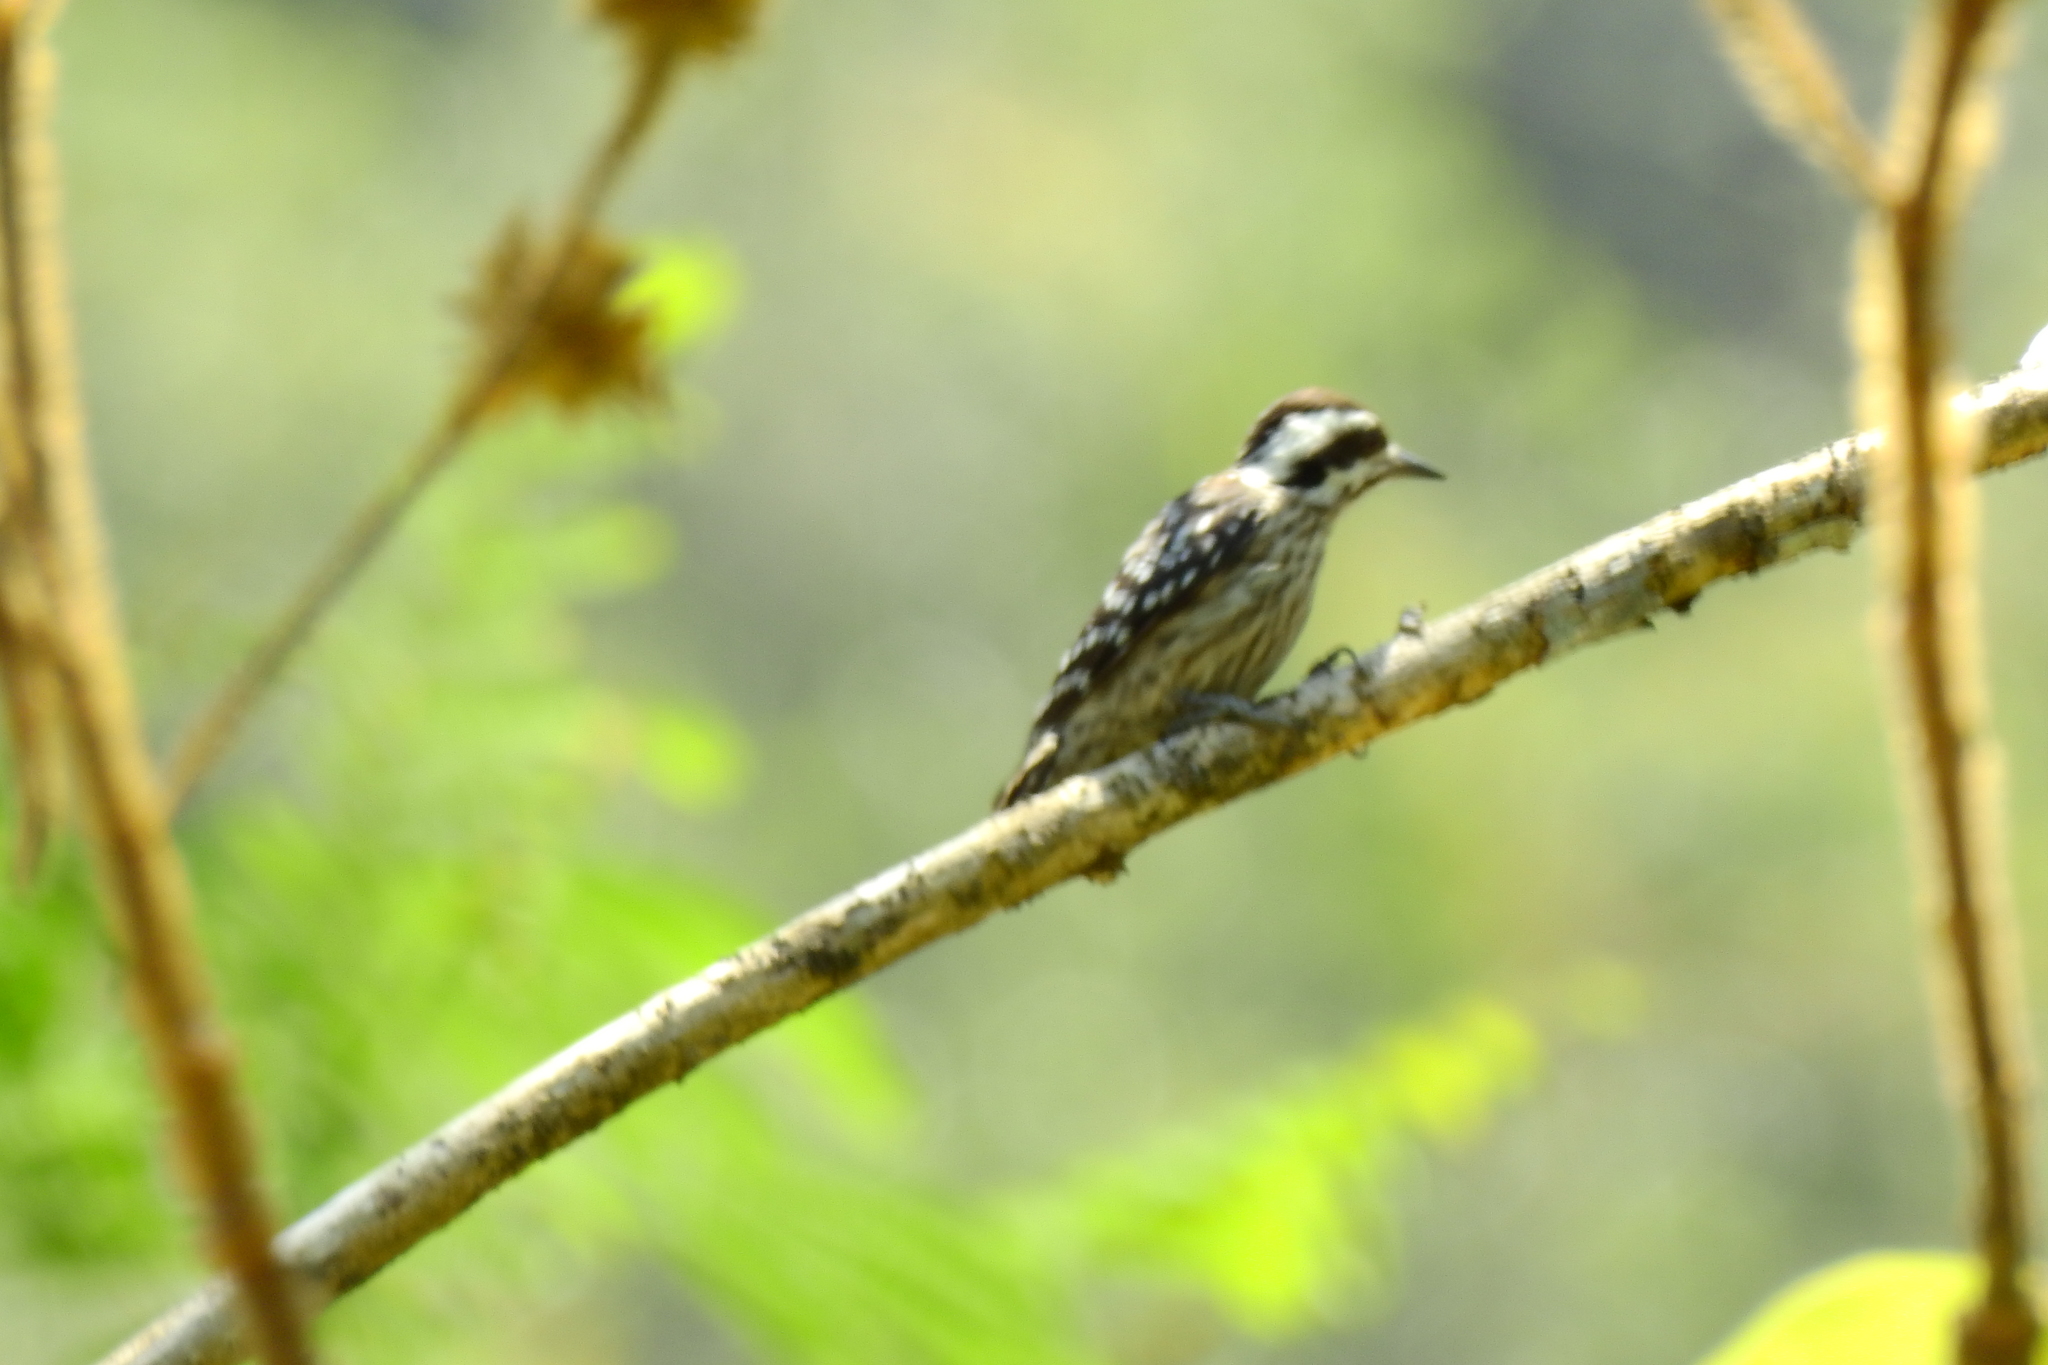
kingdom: Animalia
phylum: Chordata
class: Aves
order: Piciformes
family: Picidae
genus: Yungipicus
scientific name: Yungipicus moluccensis
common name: Sunda pygmy woodpecker
